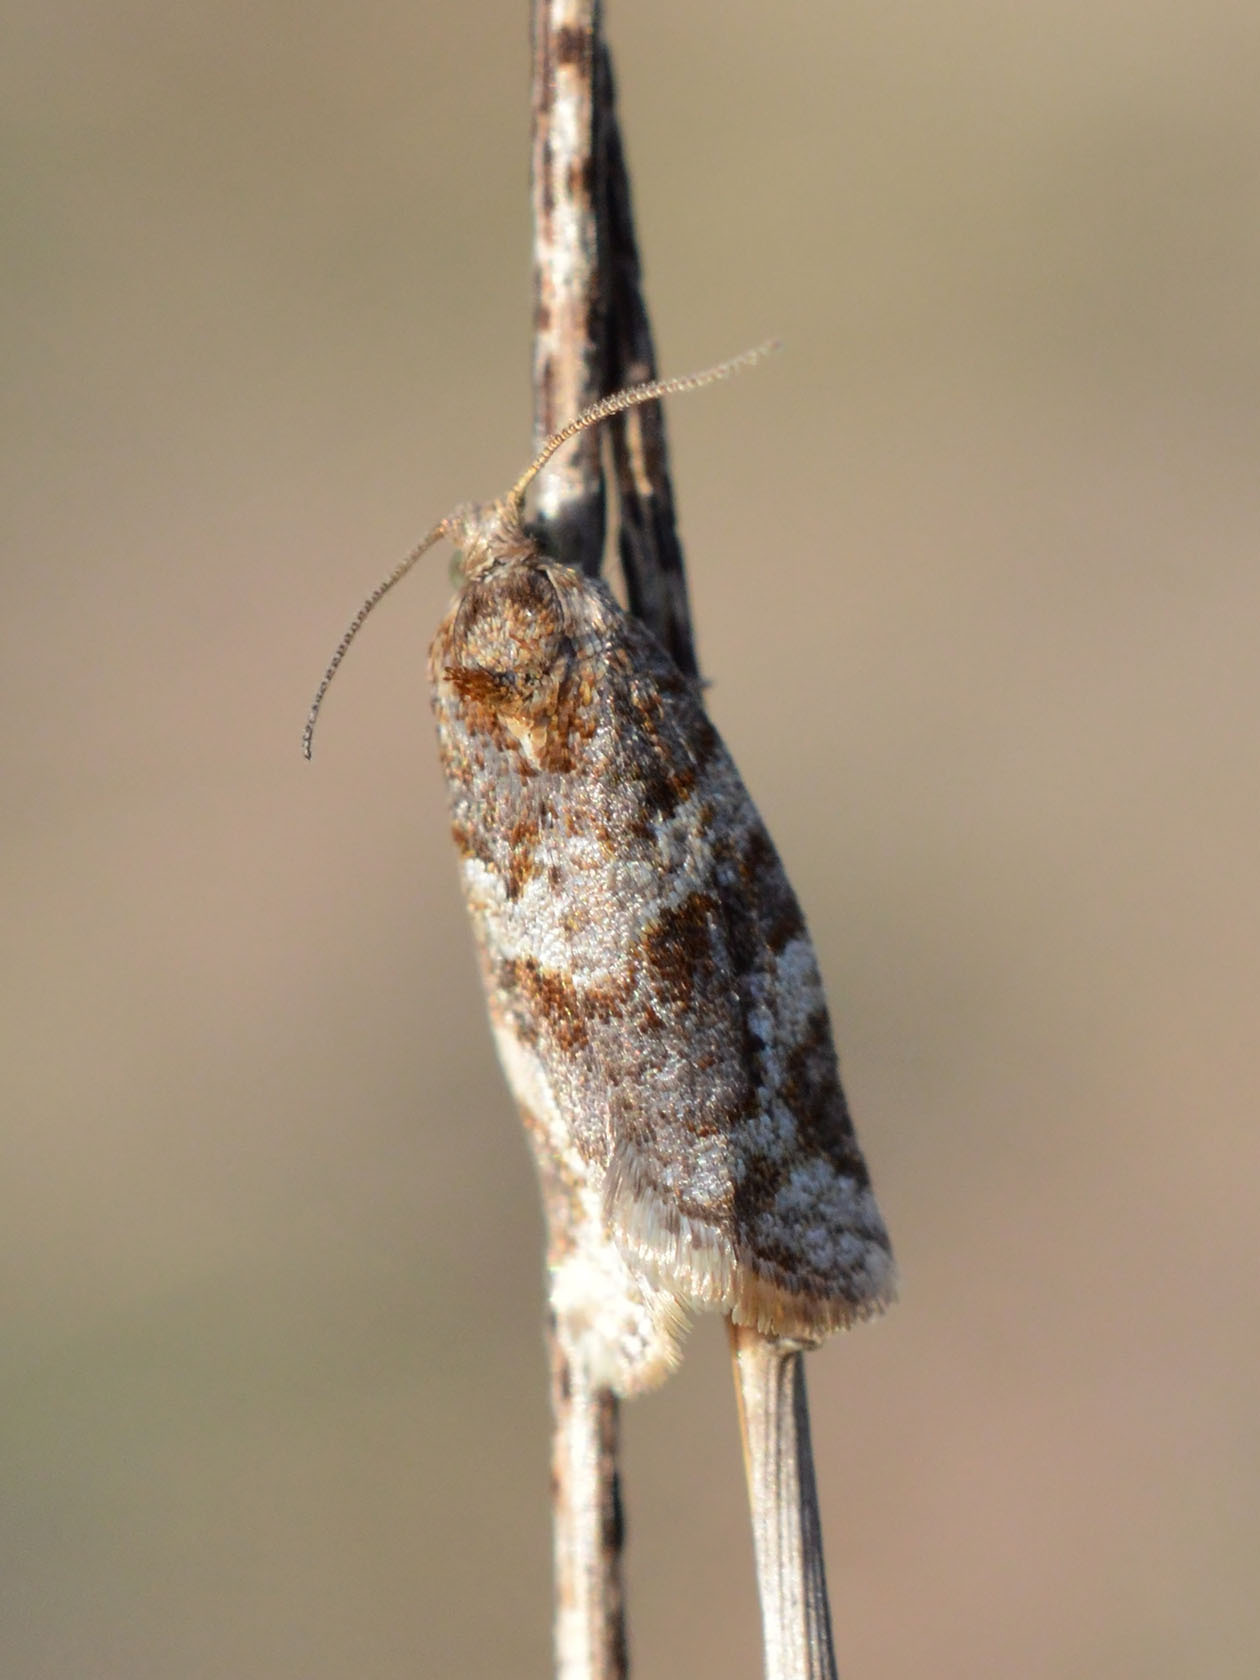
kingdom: Animalia
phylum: Arthropoda
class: Insecta
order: Lepidoptera
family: Tortricidae
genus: Argyrotaenia
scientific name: Argyrotaenia ljungiana
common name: Heather twist
